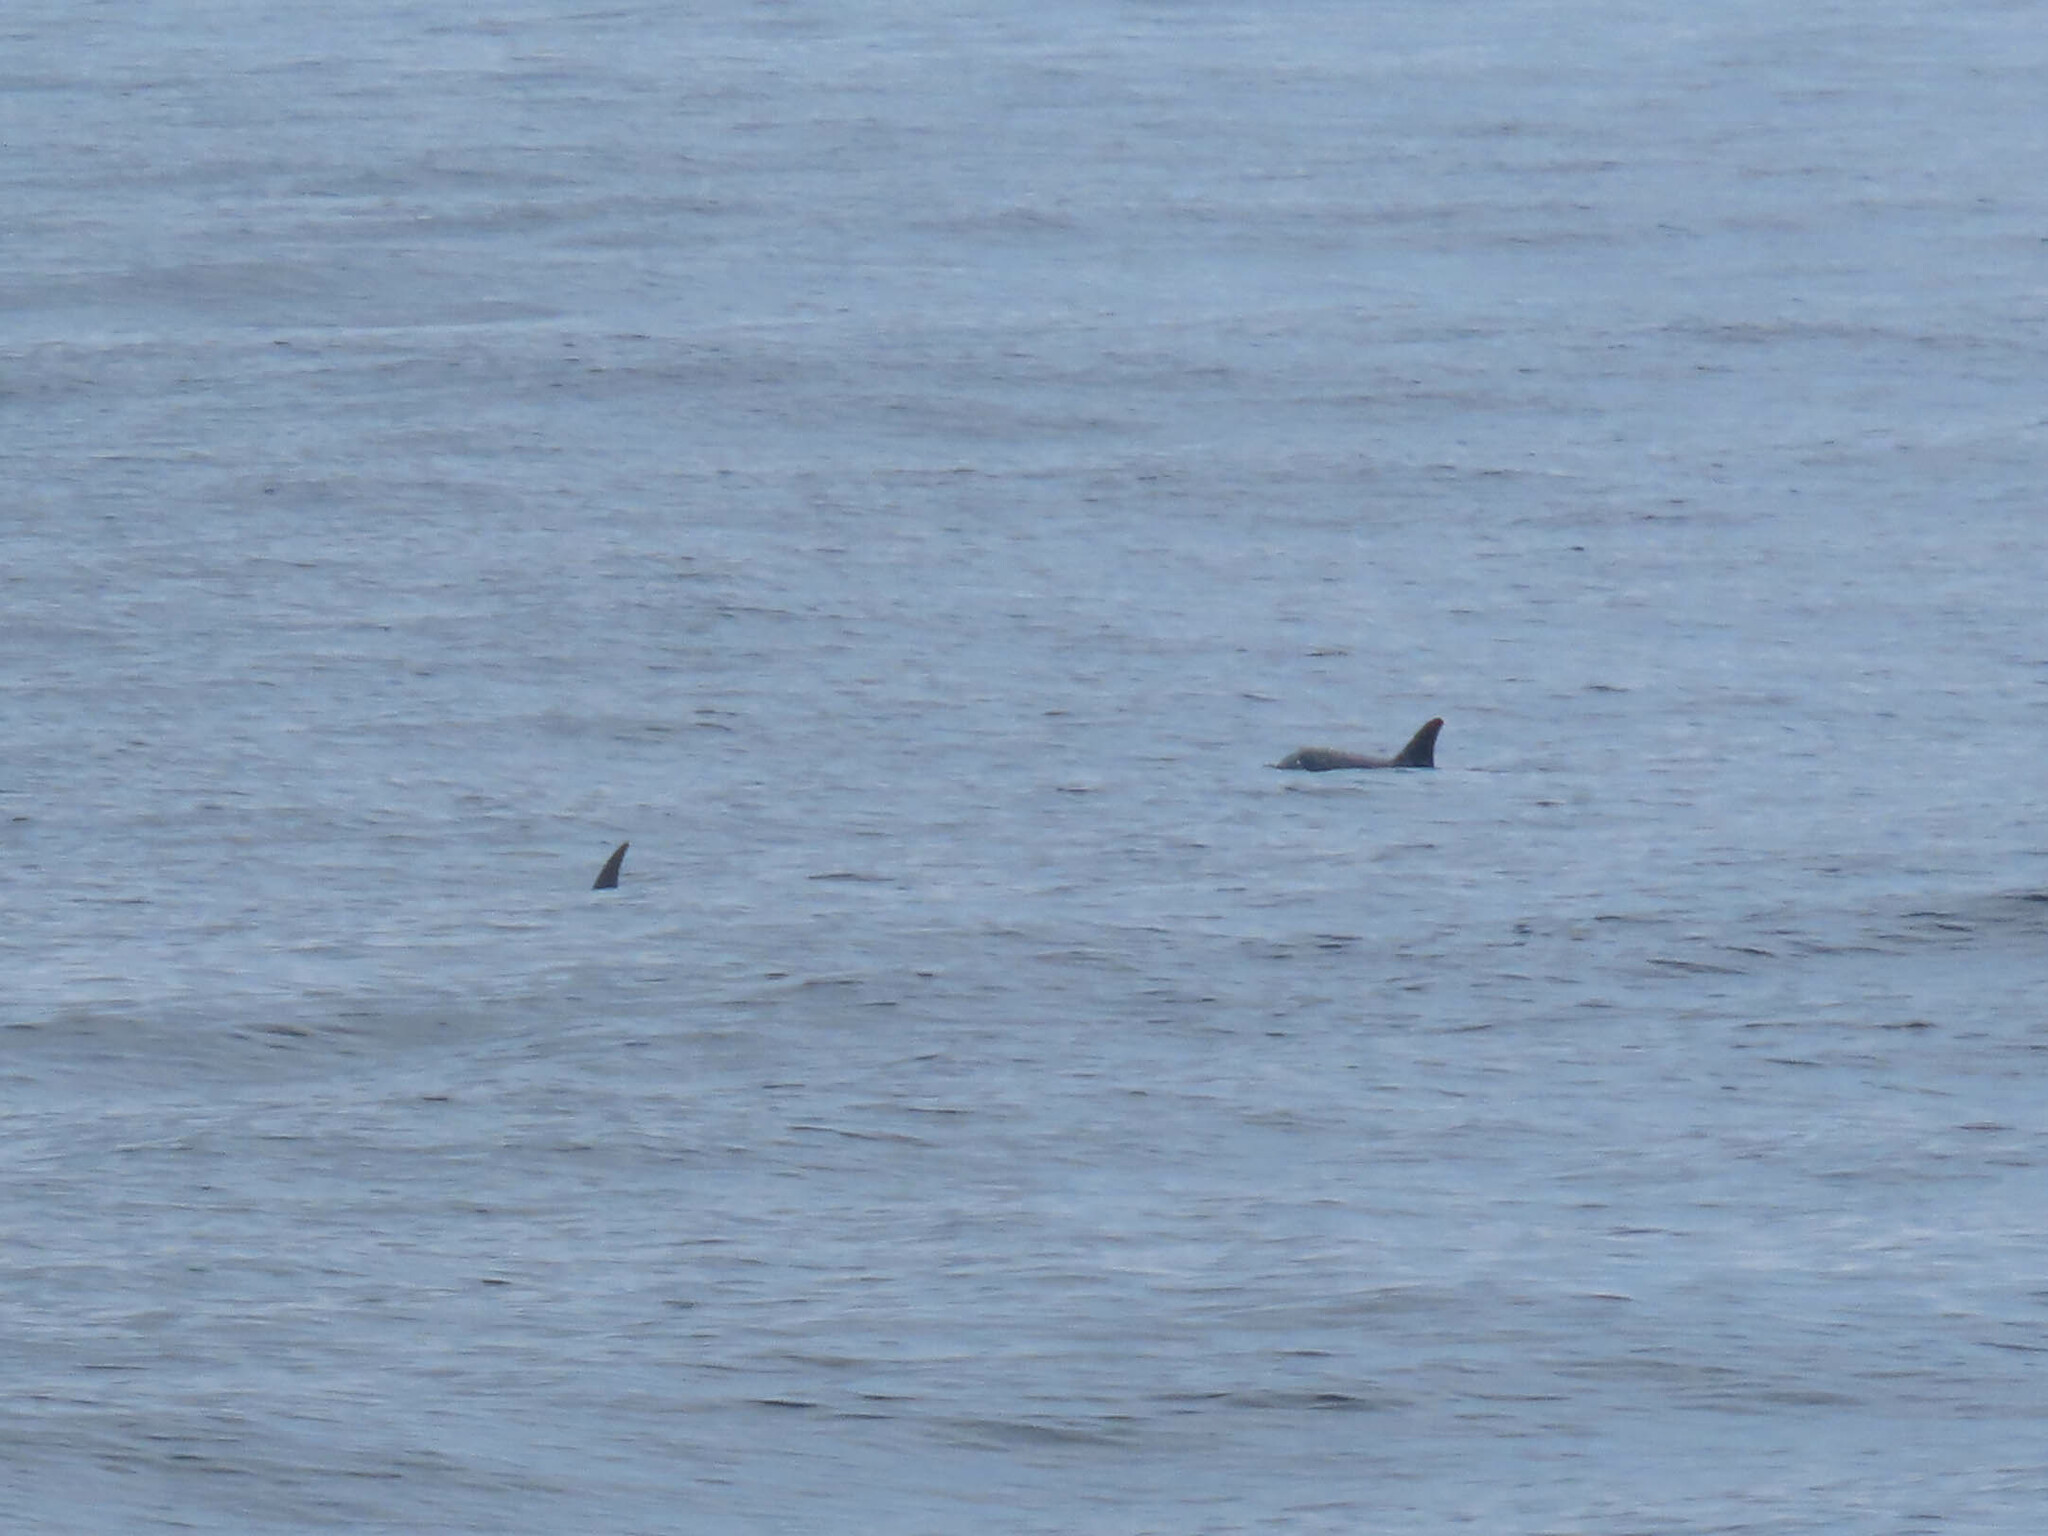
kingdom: Animalia
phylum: Chordata
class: Mammalia
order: Cetacea
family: Delphinidae
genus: Delphinus
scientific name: Delphinus delphis
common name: Common dolphin
